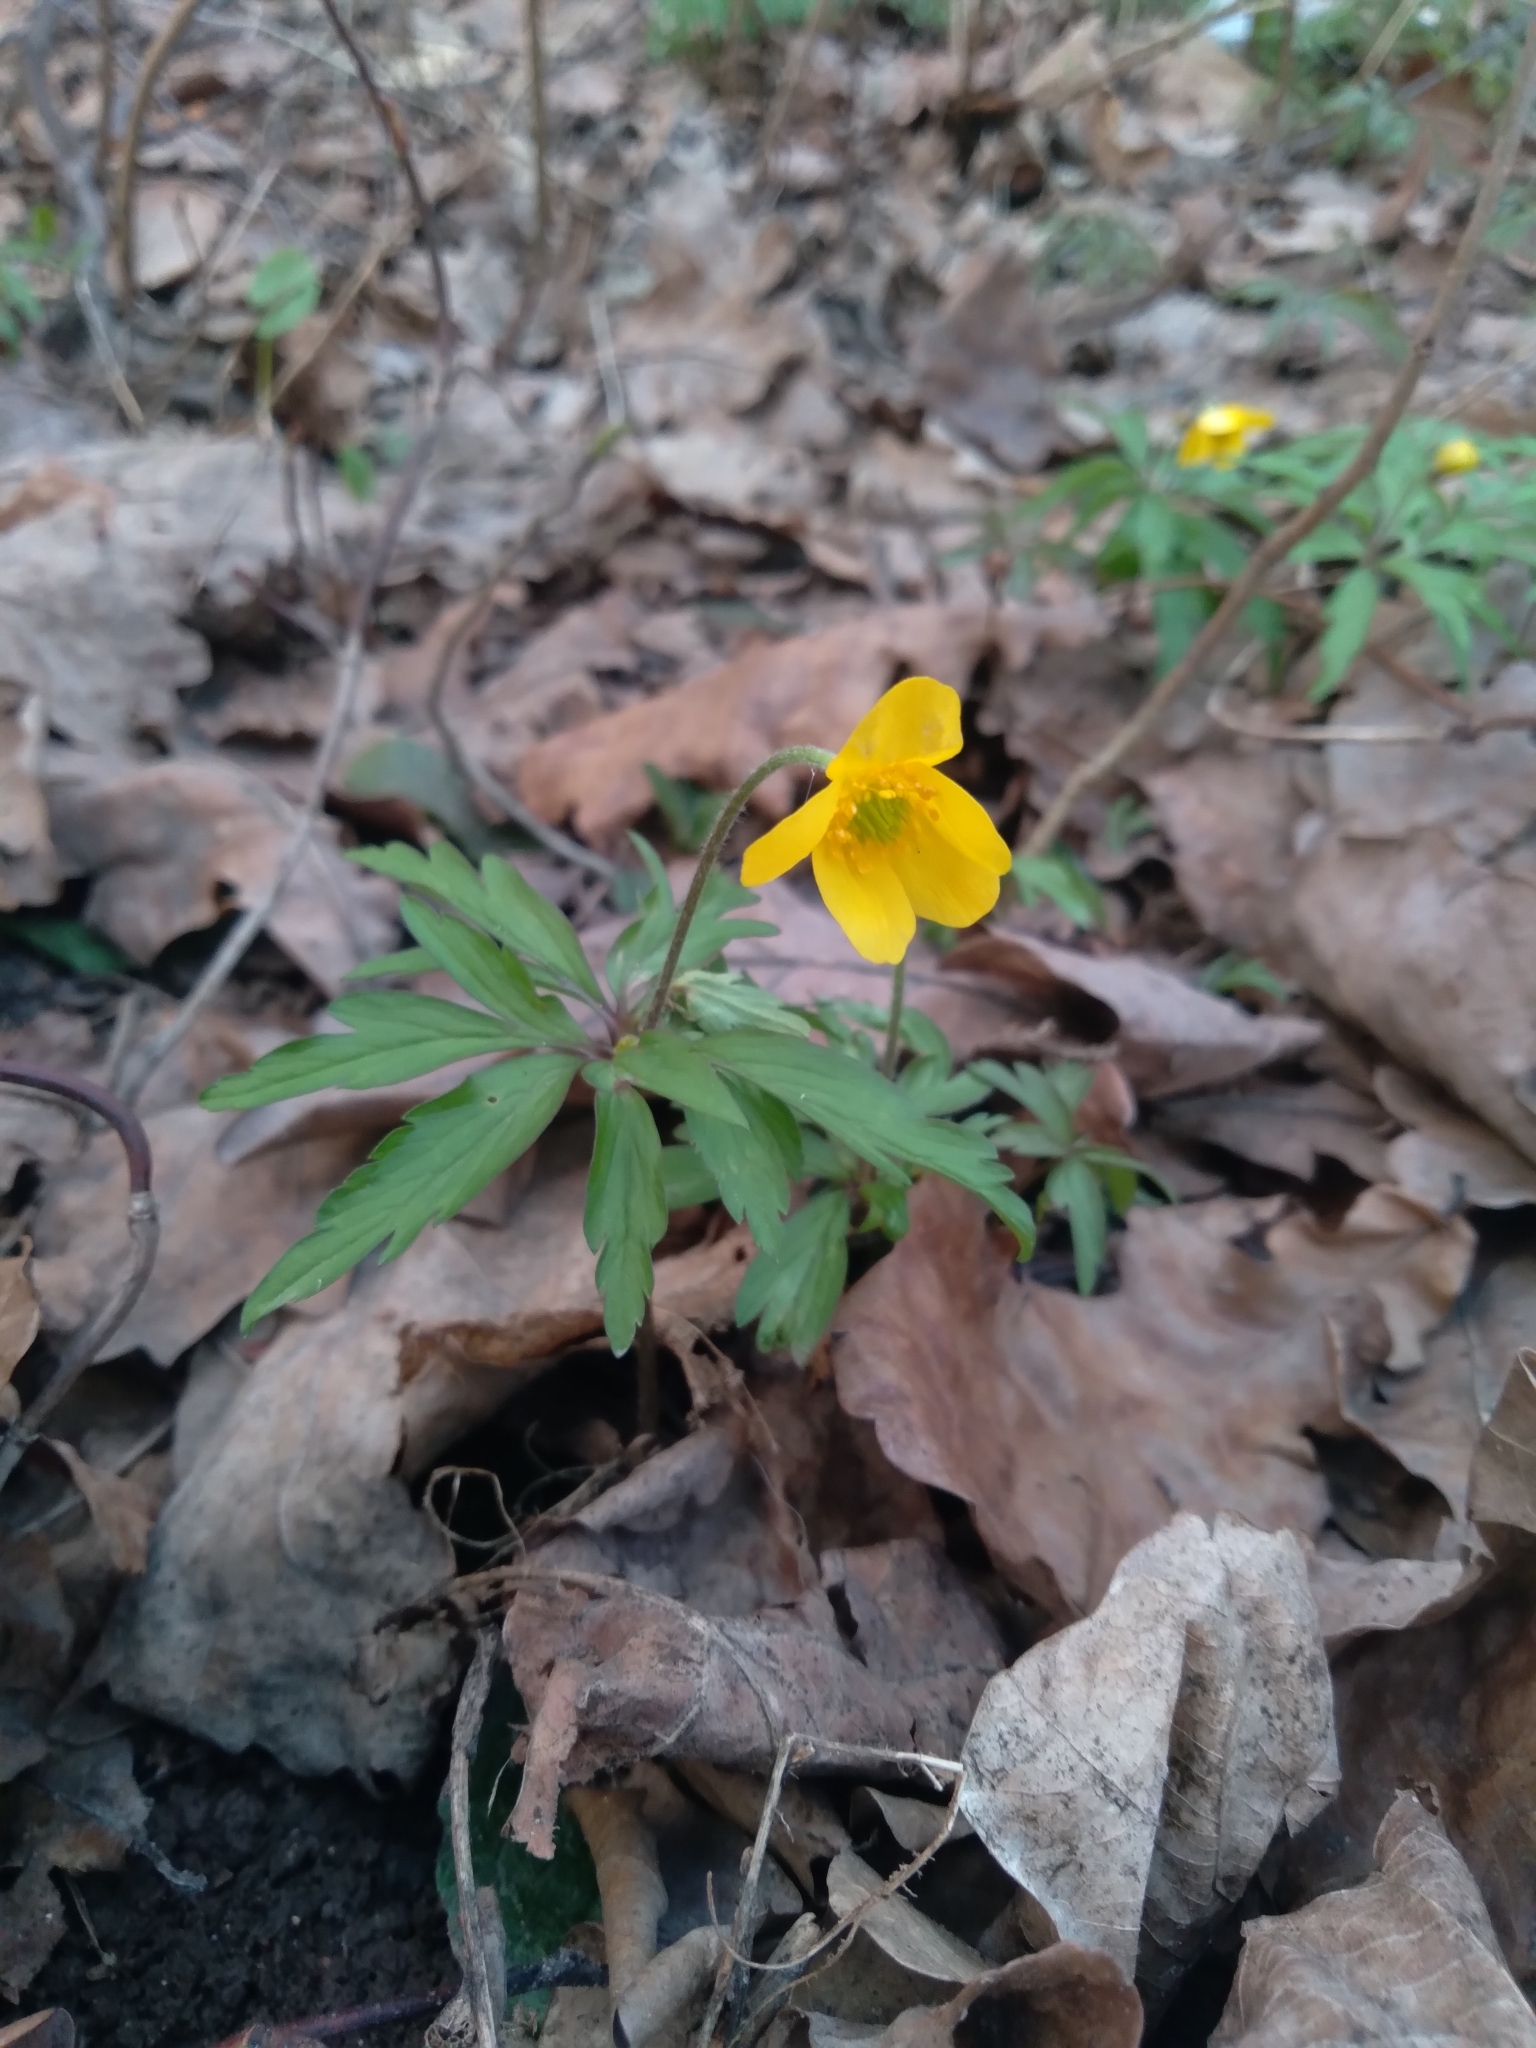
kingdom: Plantae
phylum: Tracheophyta
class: Magnoliopsida
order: Ranunculales
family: Ranunculaceae
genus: Anemone
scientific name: Anemone ranunculoides
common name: Yellow anemone
